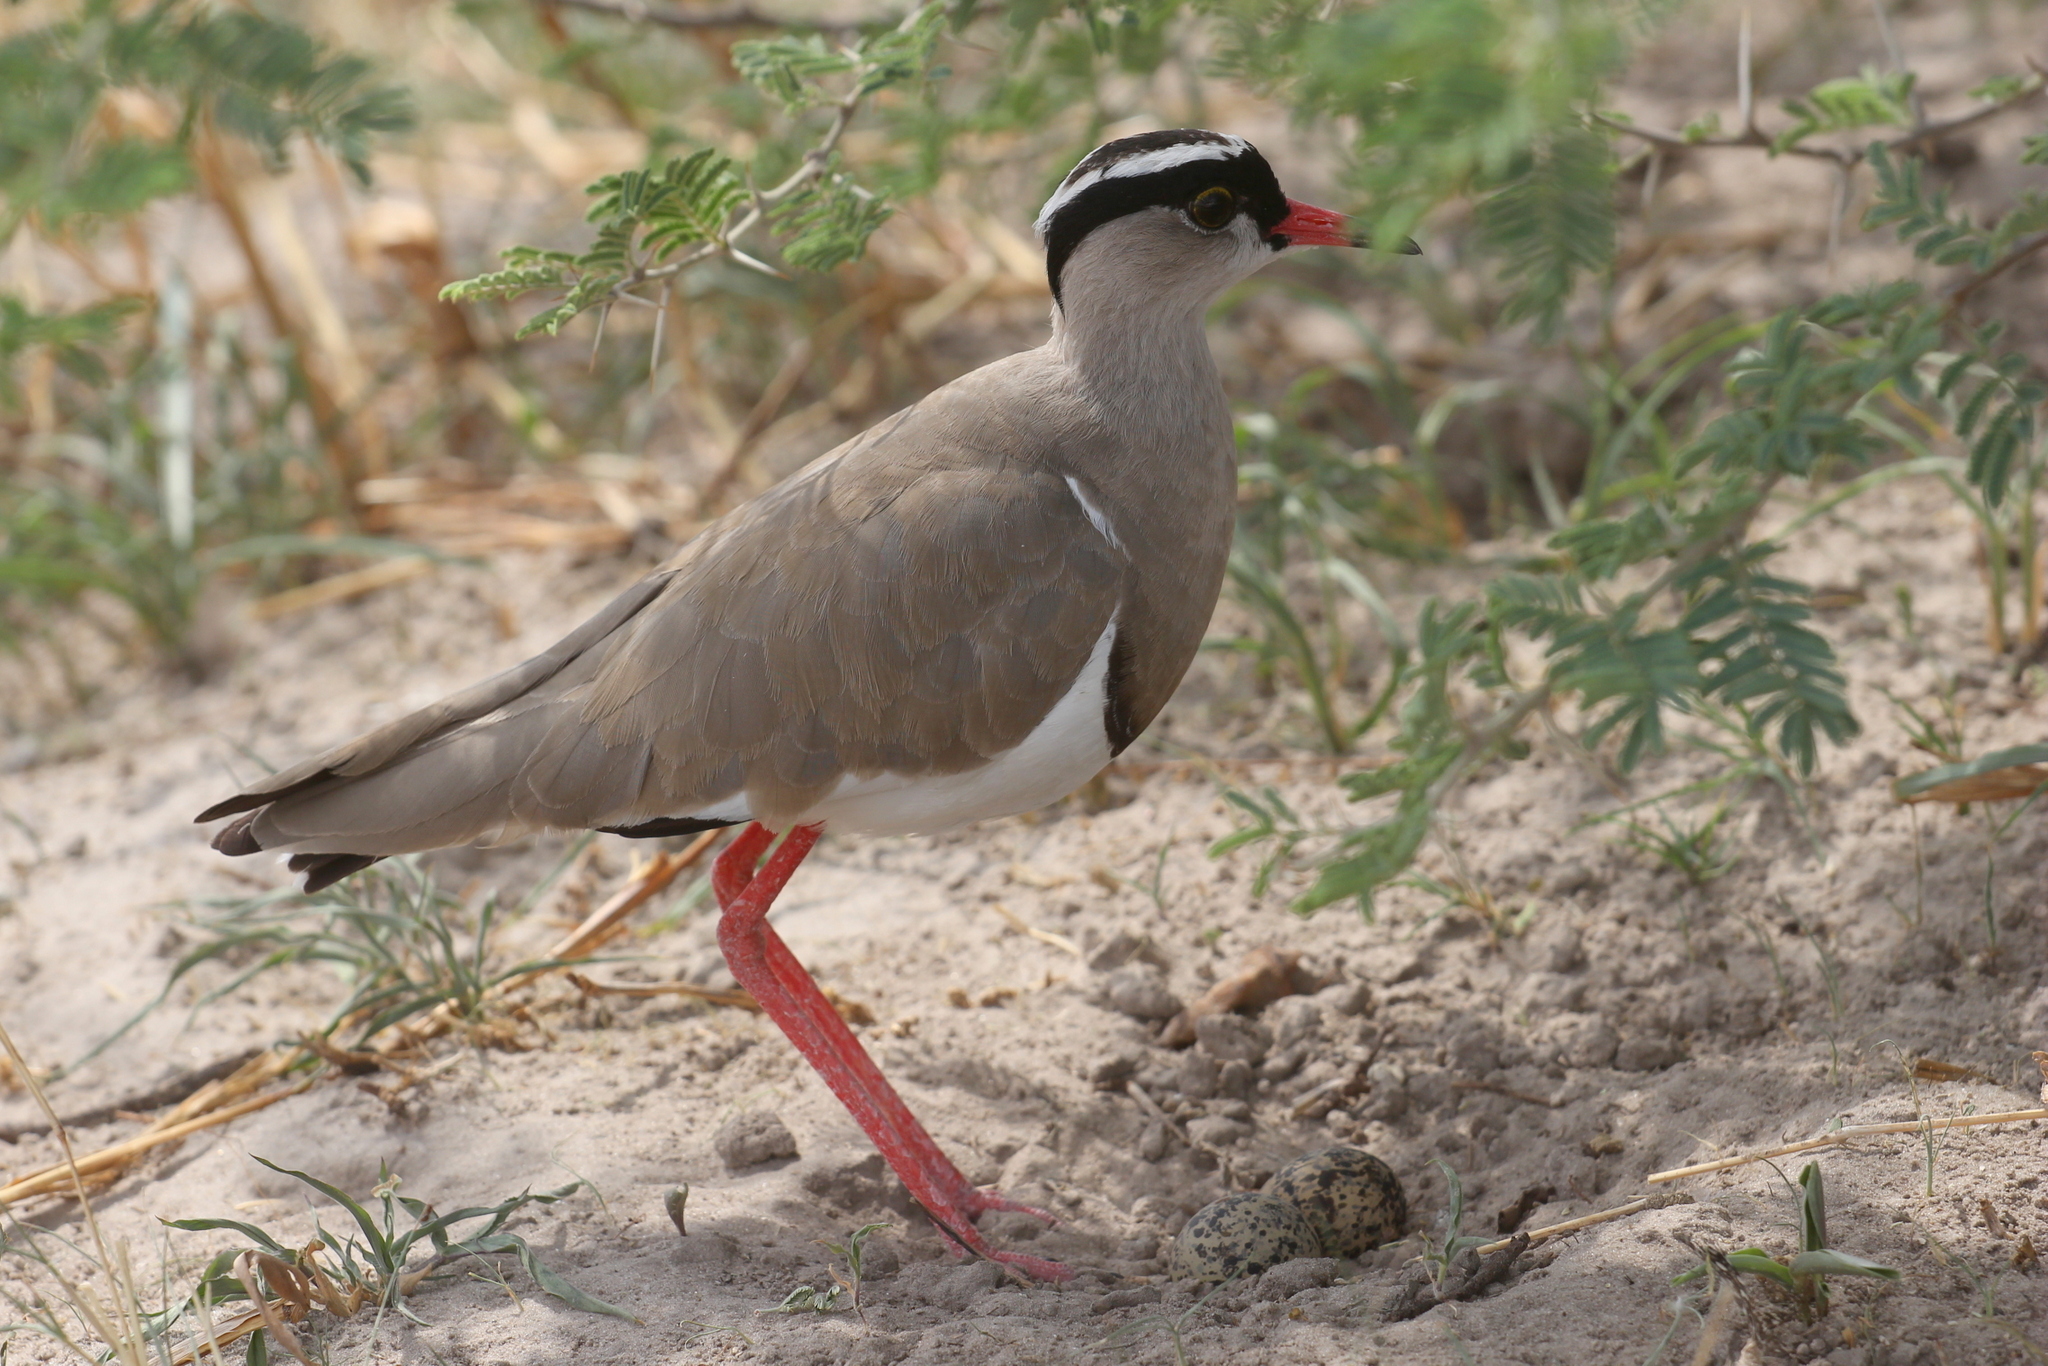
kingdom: Animalia
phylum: Chordata
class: Aves
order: Charadriiformes
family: Charadriidae
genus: Vanellus
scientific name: Vanellus coronatus
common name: Crowned lapwing
